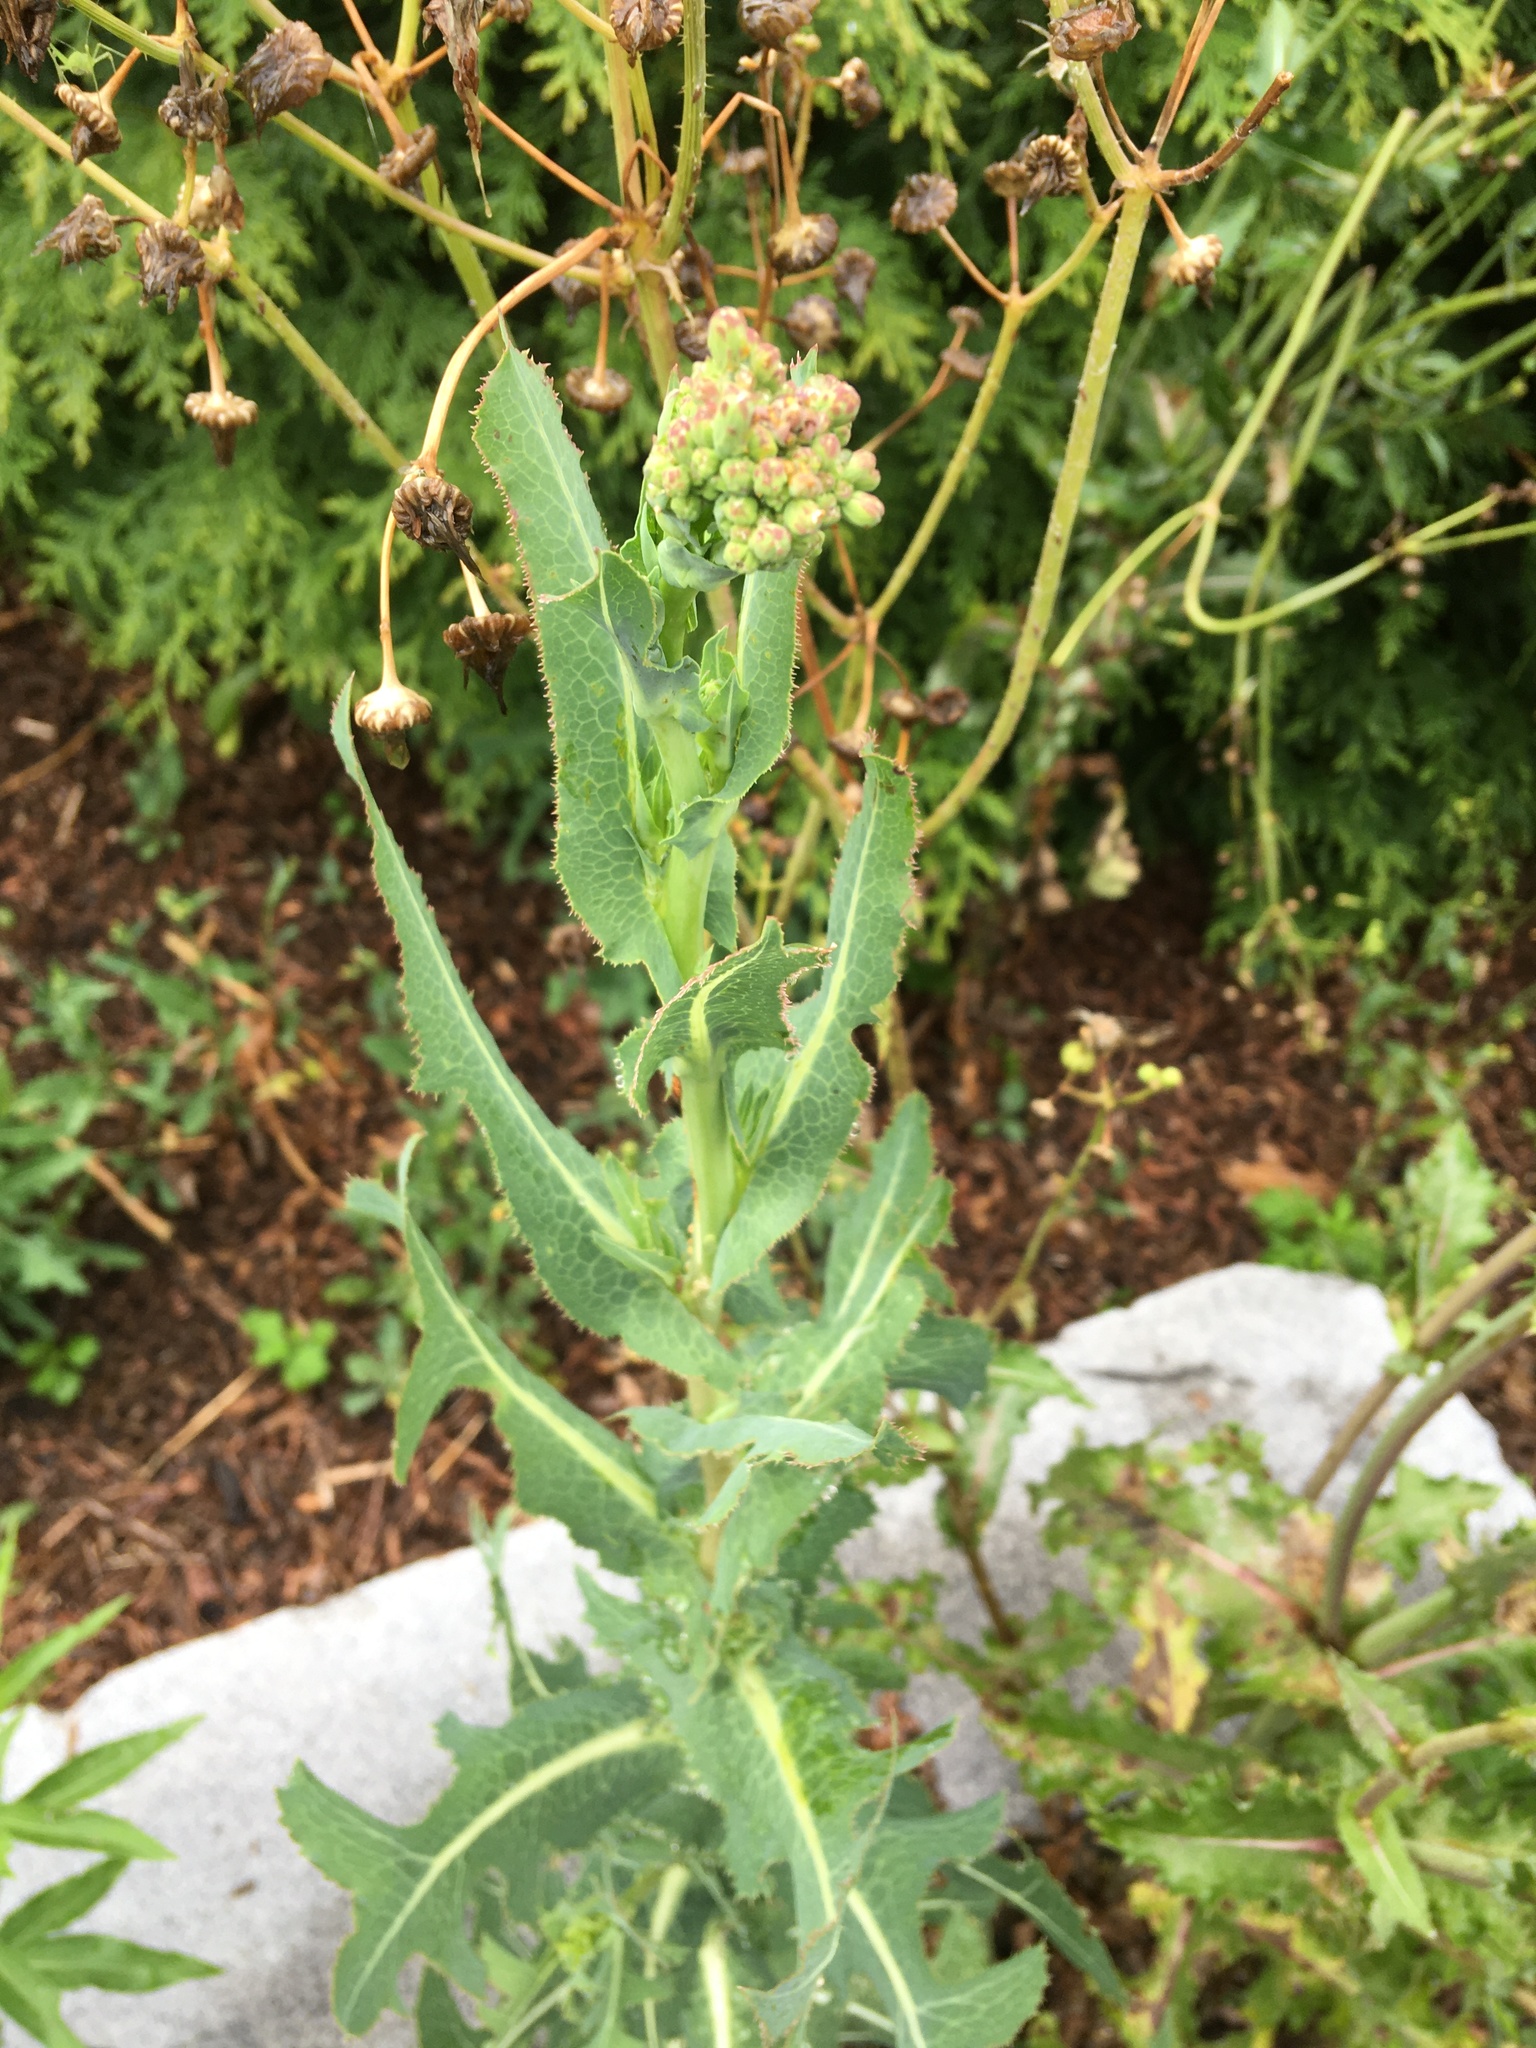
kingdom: Plantae
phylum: Tracheophyta
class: Magnoliopsida
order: Asterales
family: Asteraceae
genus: Lactuca
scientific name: Lactuca serriola
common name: Prickly lettuce
